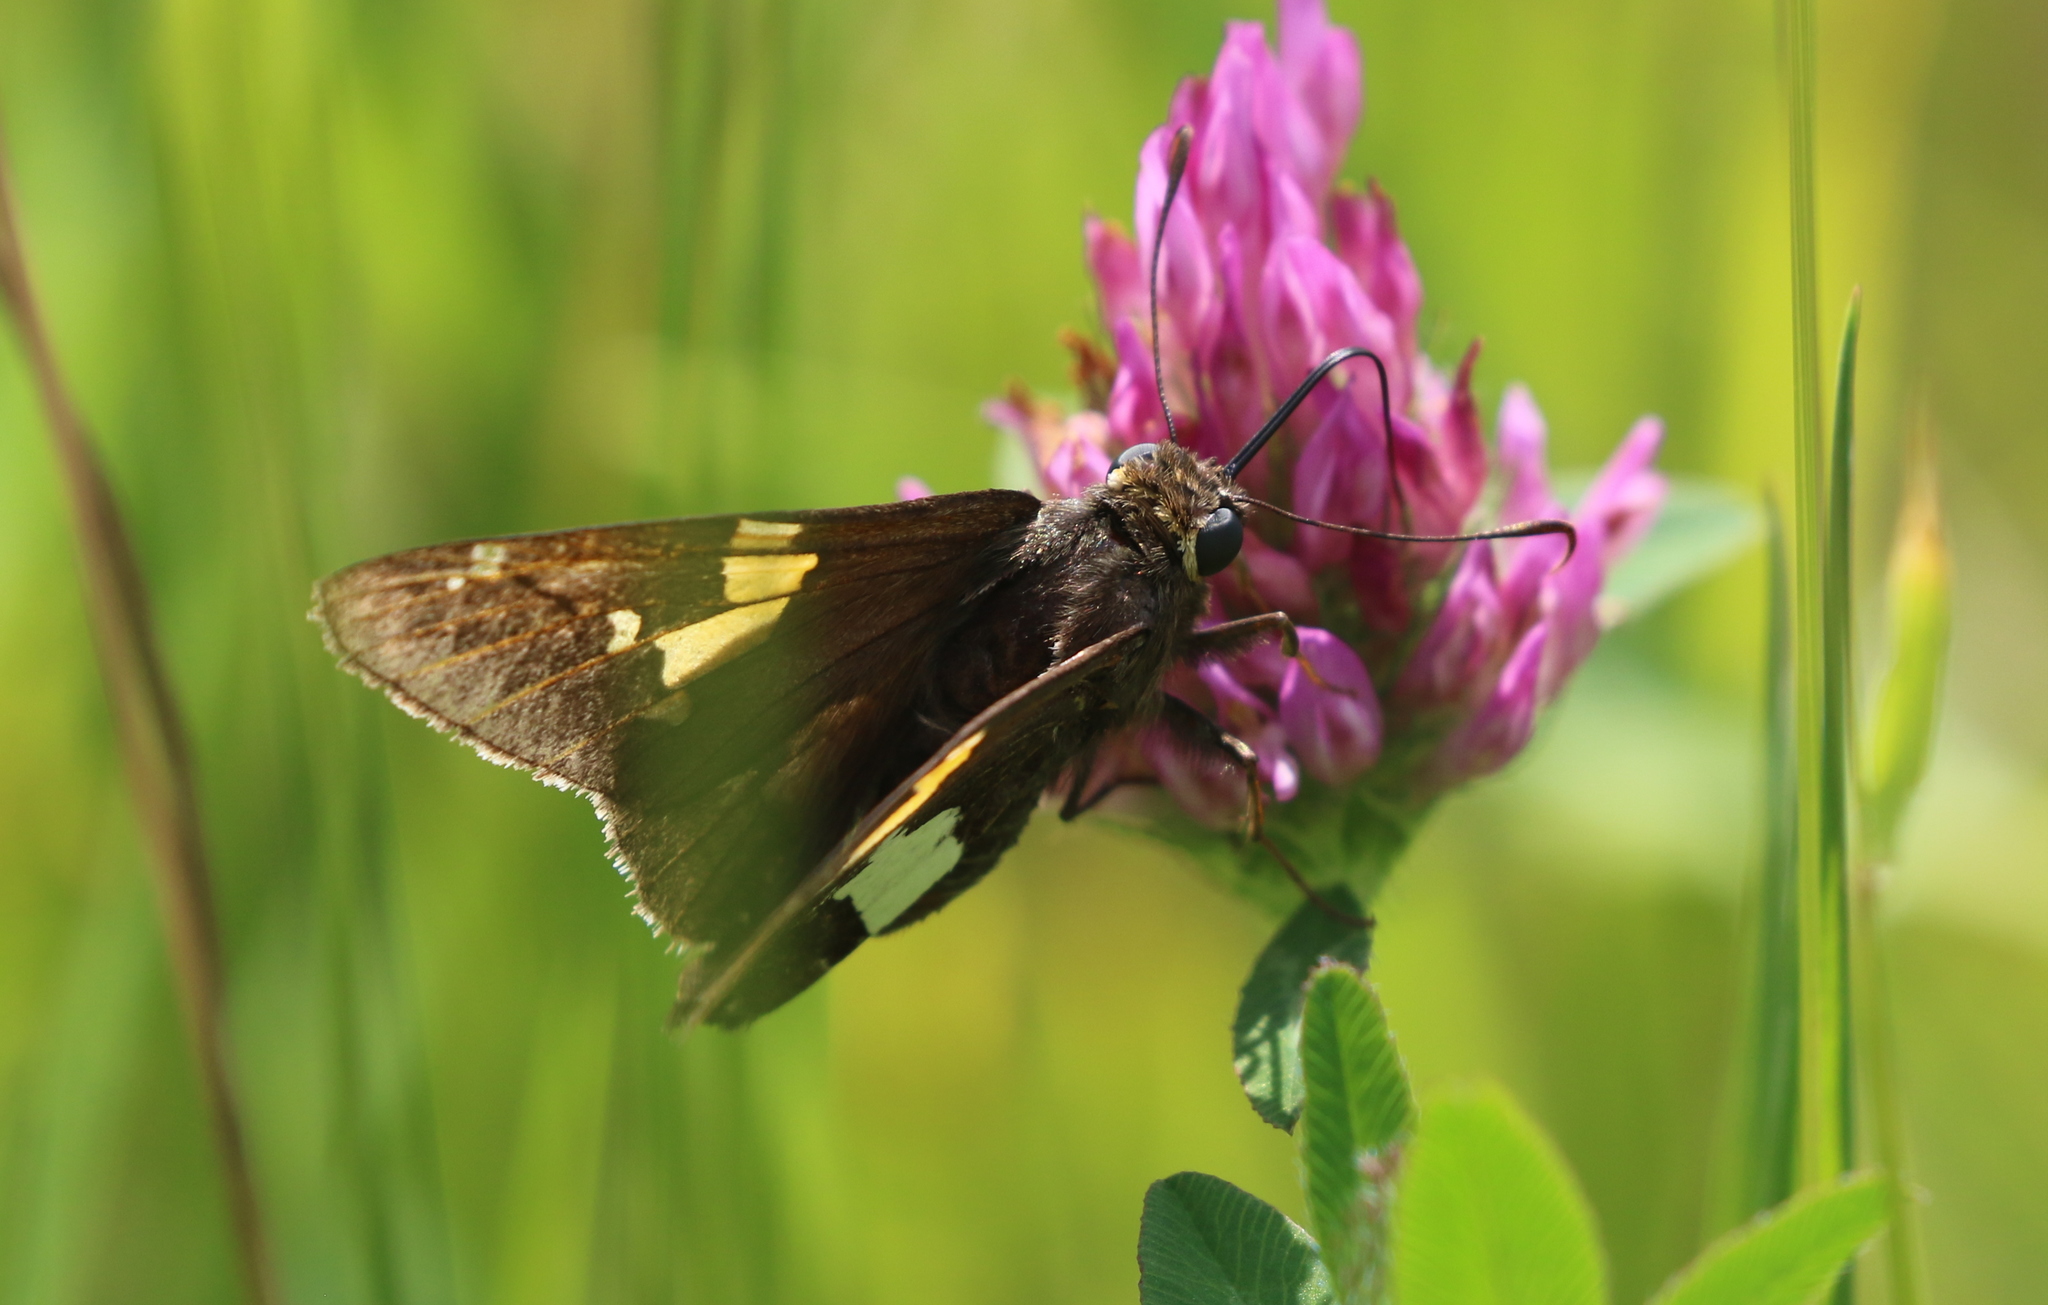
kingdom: Animalia
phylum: Arthropoda
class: Insecta
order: Lepidoptera
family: Hesperiidae
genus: Epargyreus
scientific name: Epargyreus clarus
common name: Silver-spotted skipper
